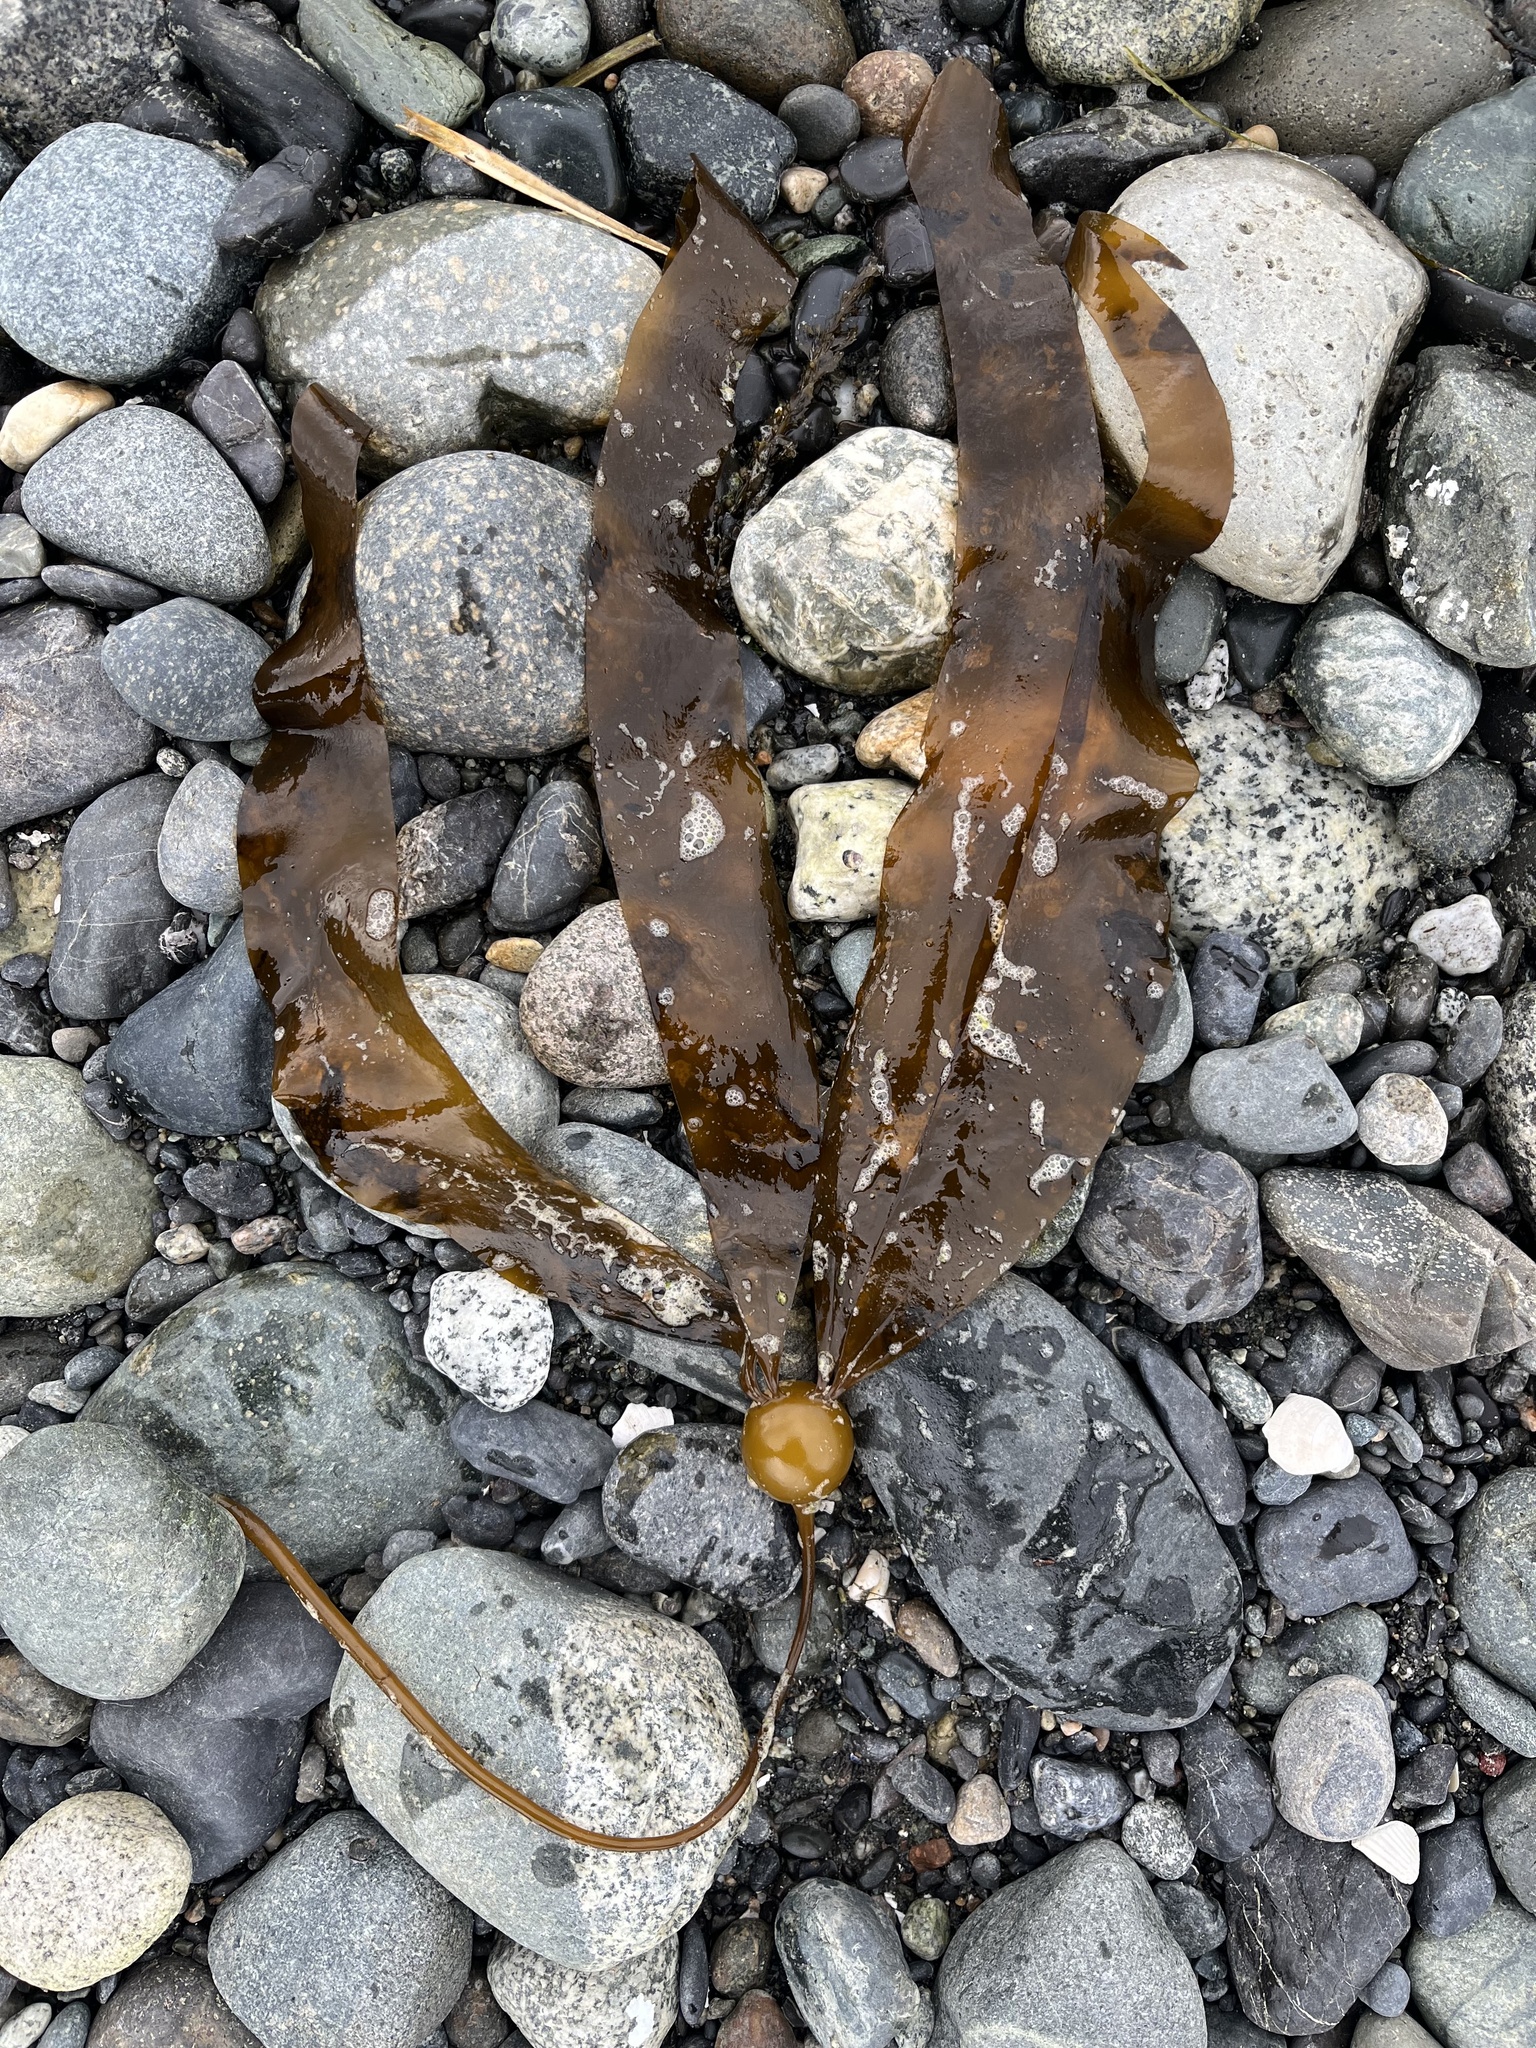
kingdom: Chromista
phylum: Ochrophyta
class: Phaeophyceae
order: Laminariales
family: Laminariaceae
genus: Nereocystis
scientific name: Nereocystis luetkeana
